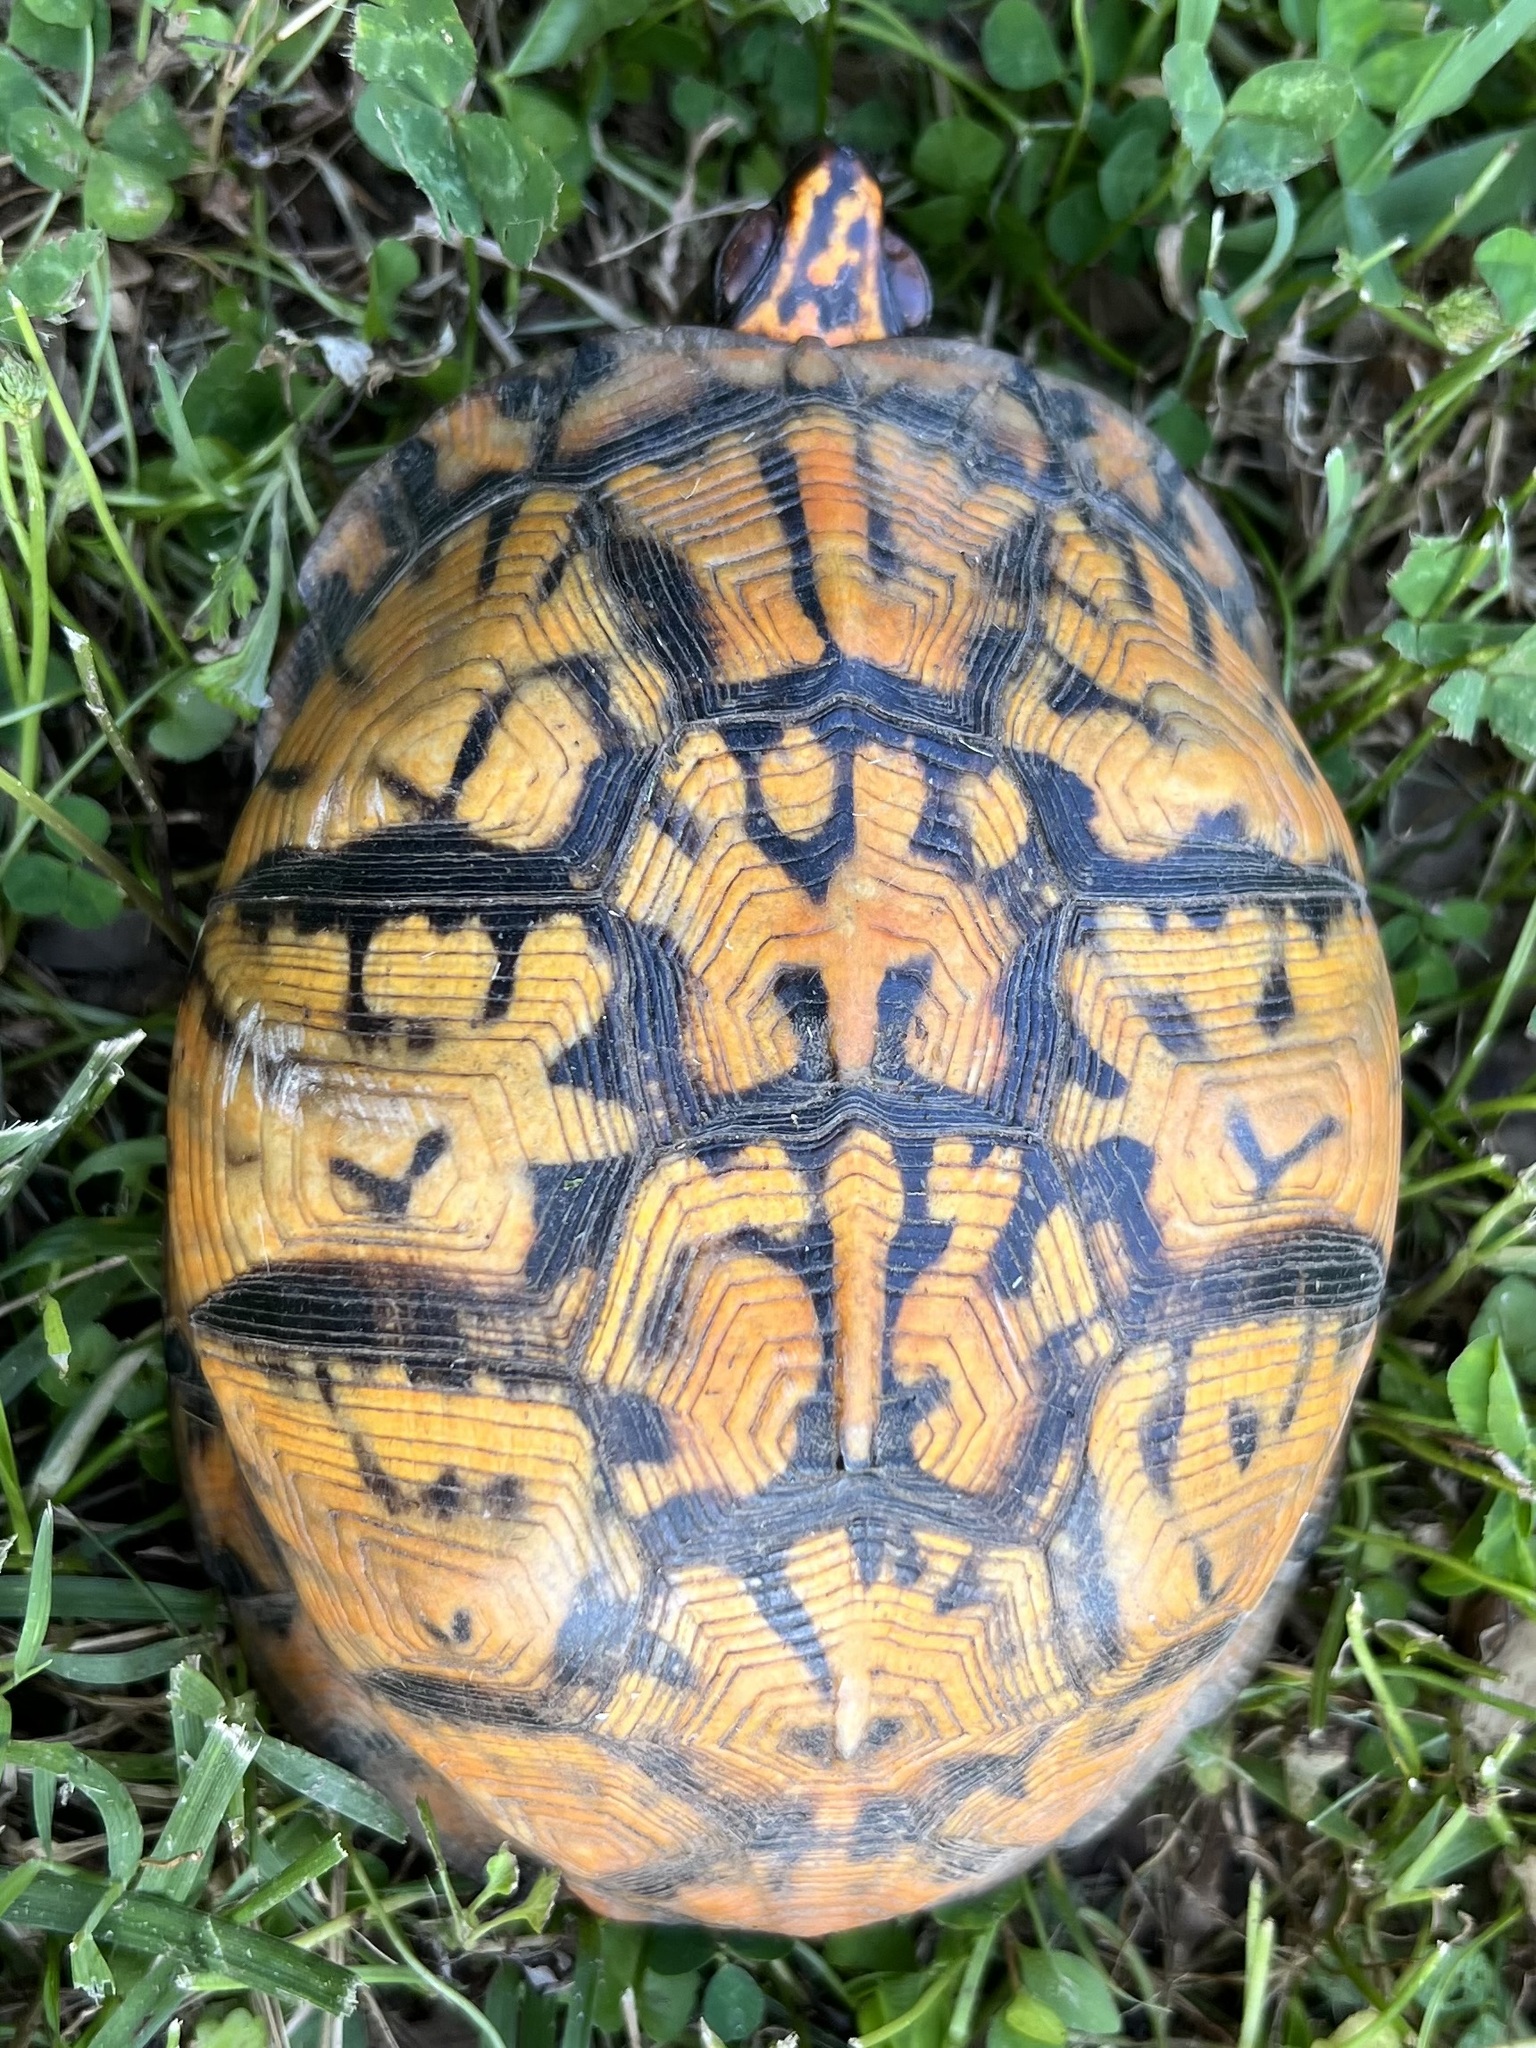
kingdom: Animalia
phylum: Chordata
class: Testudines
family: Emydidae
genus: Terrapene
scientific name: Terrapene carolina
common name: Common box turtle
